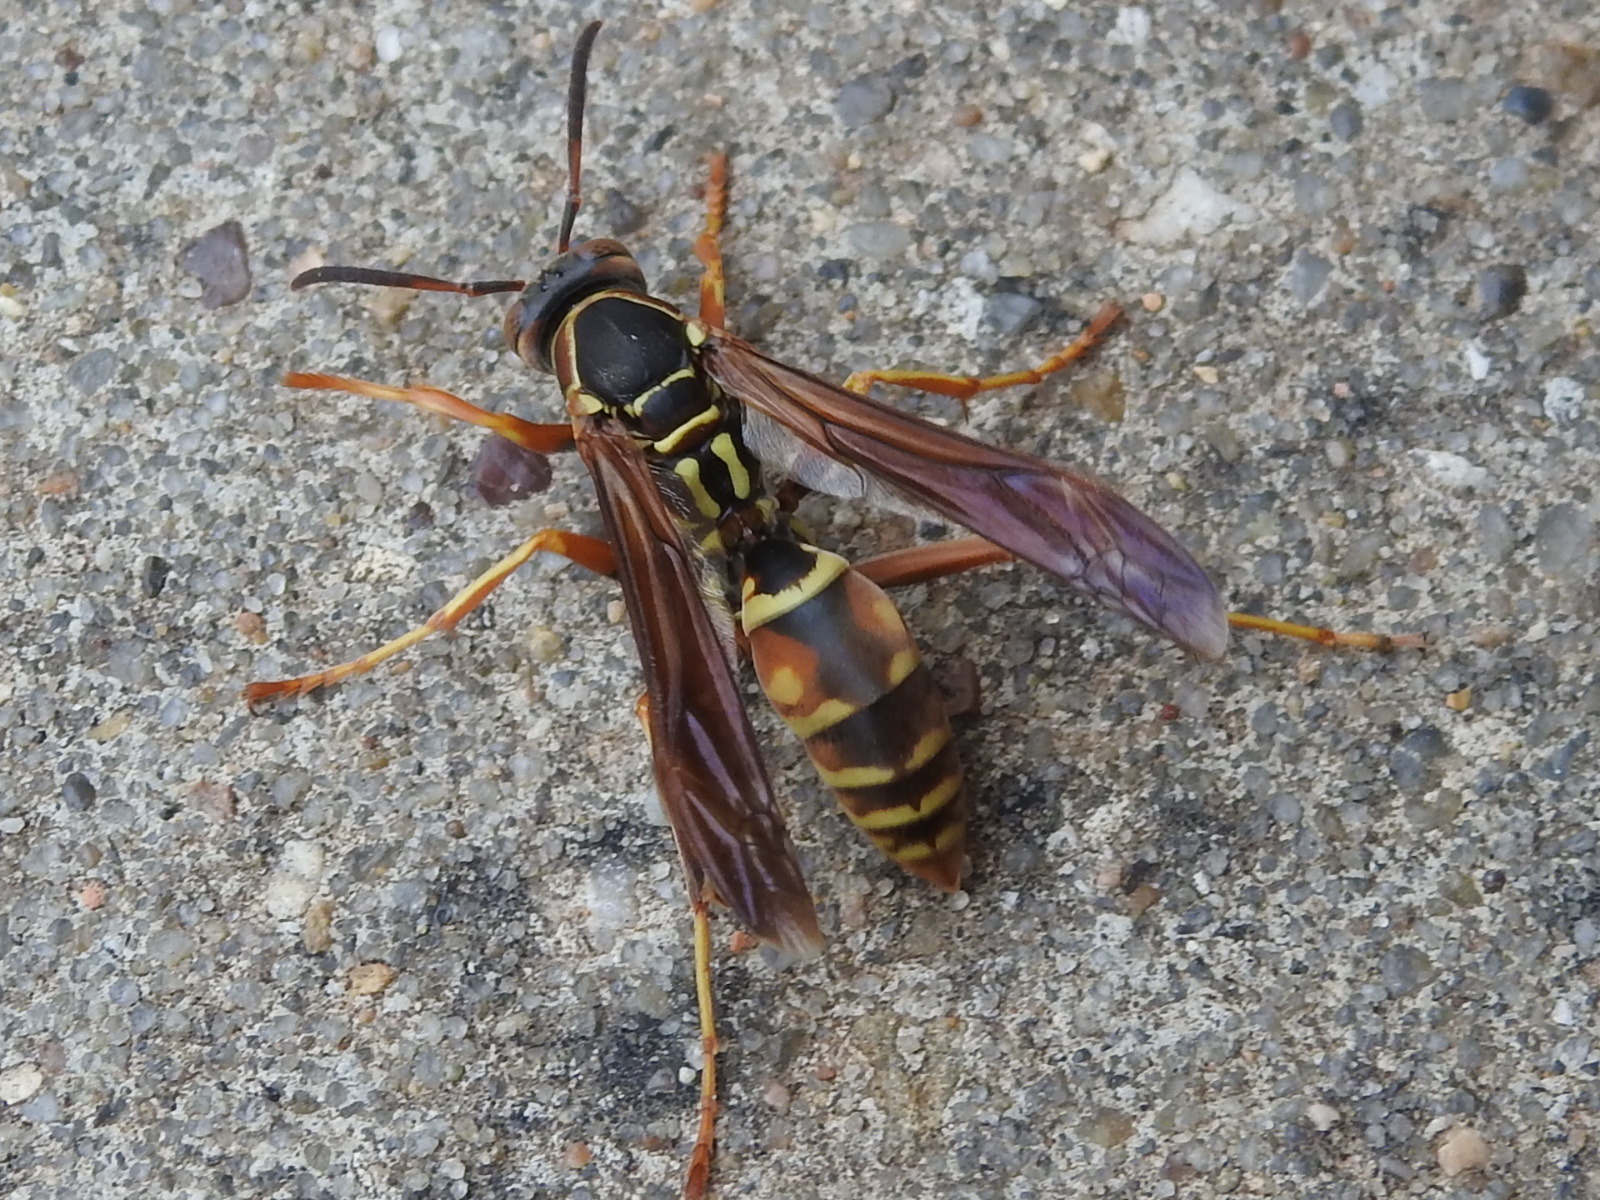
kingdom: Animalia
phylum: Arthropoda
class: Insecta
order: Hymenoptera
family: Eumenidae
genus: Polistes
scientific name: Polistes fuscatus
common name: Dark paper wasp
